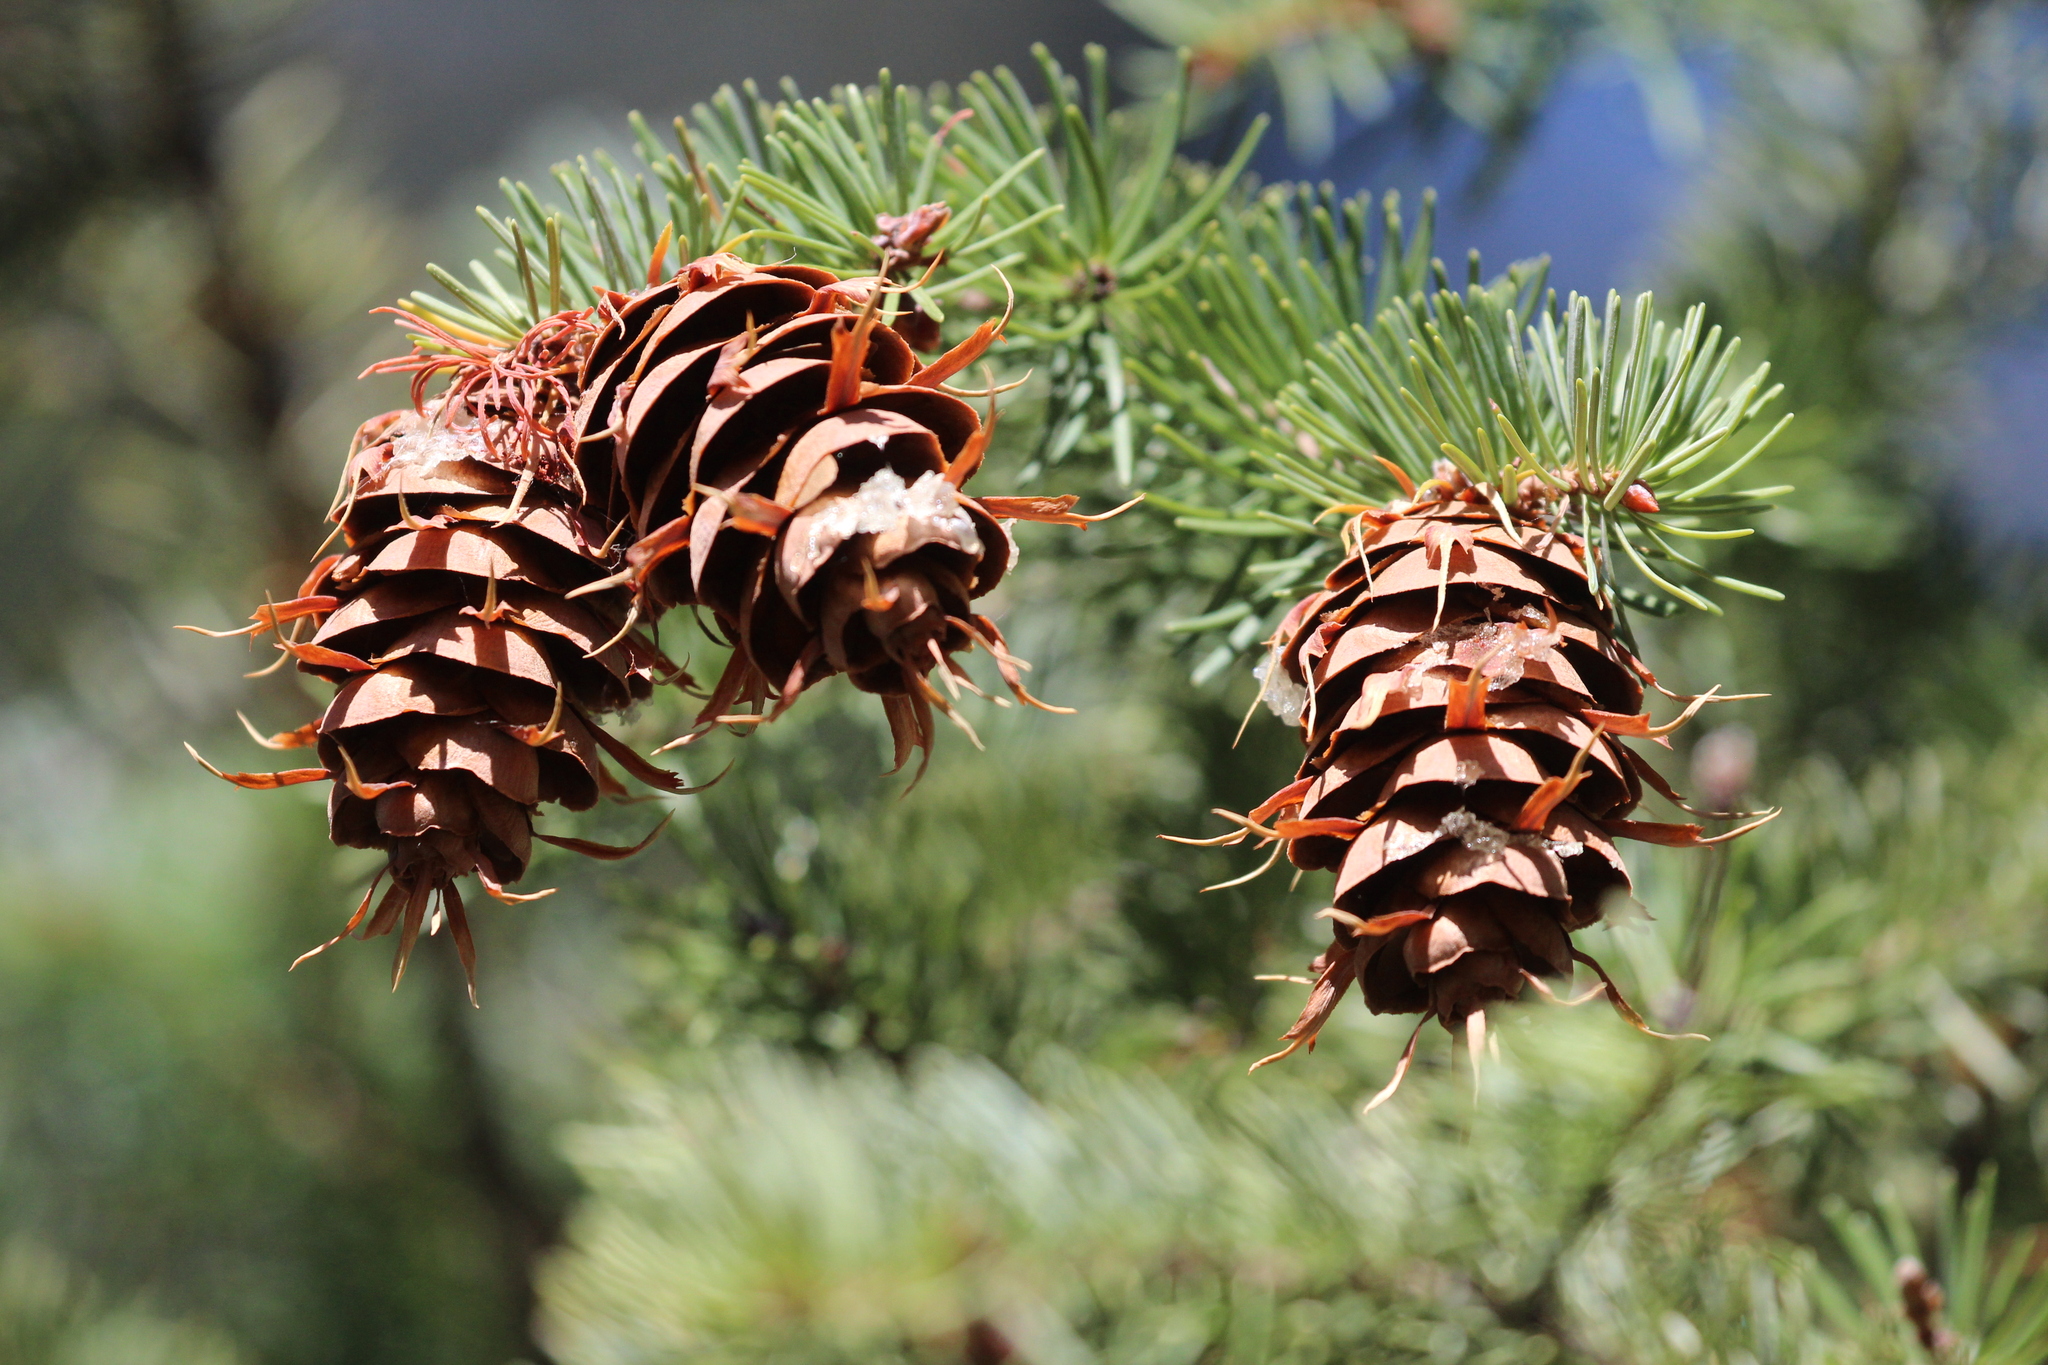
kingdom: Plantae
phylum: Tracheophyta
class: Pinopsida
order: Pinales
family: Pinaceae
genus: Pseudotsuga
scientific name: Pseudotsuga menziesii
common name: Douglas fir
